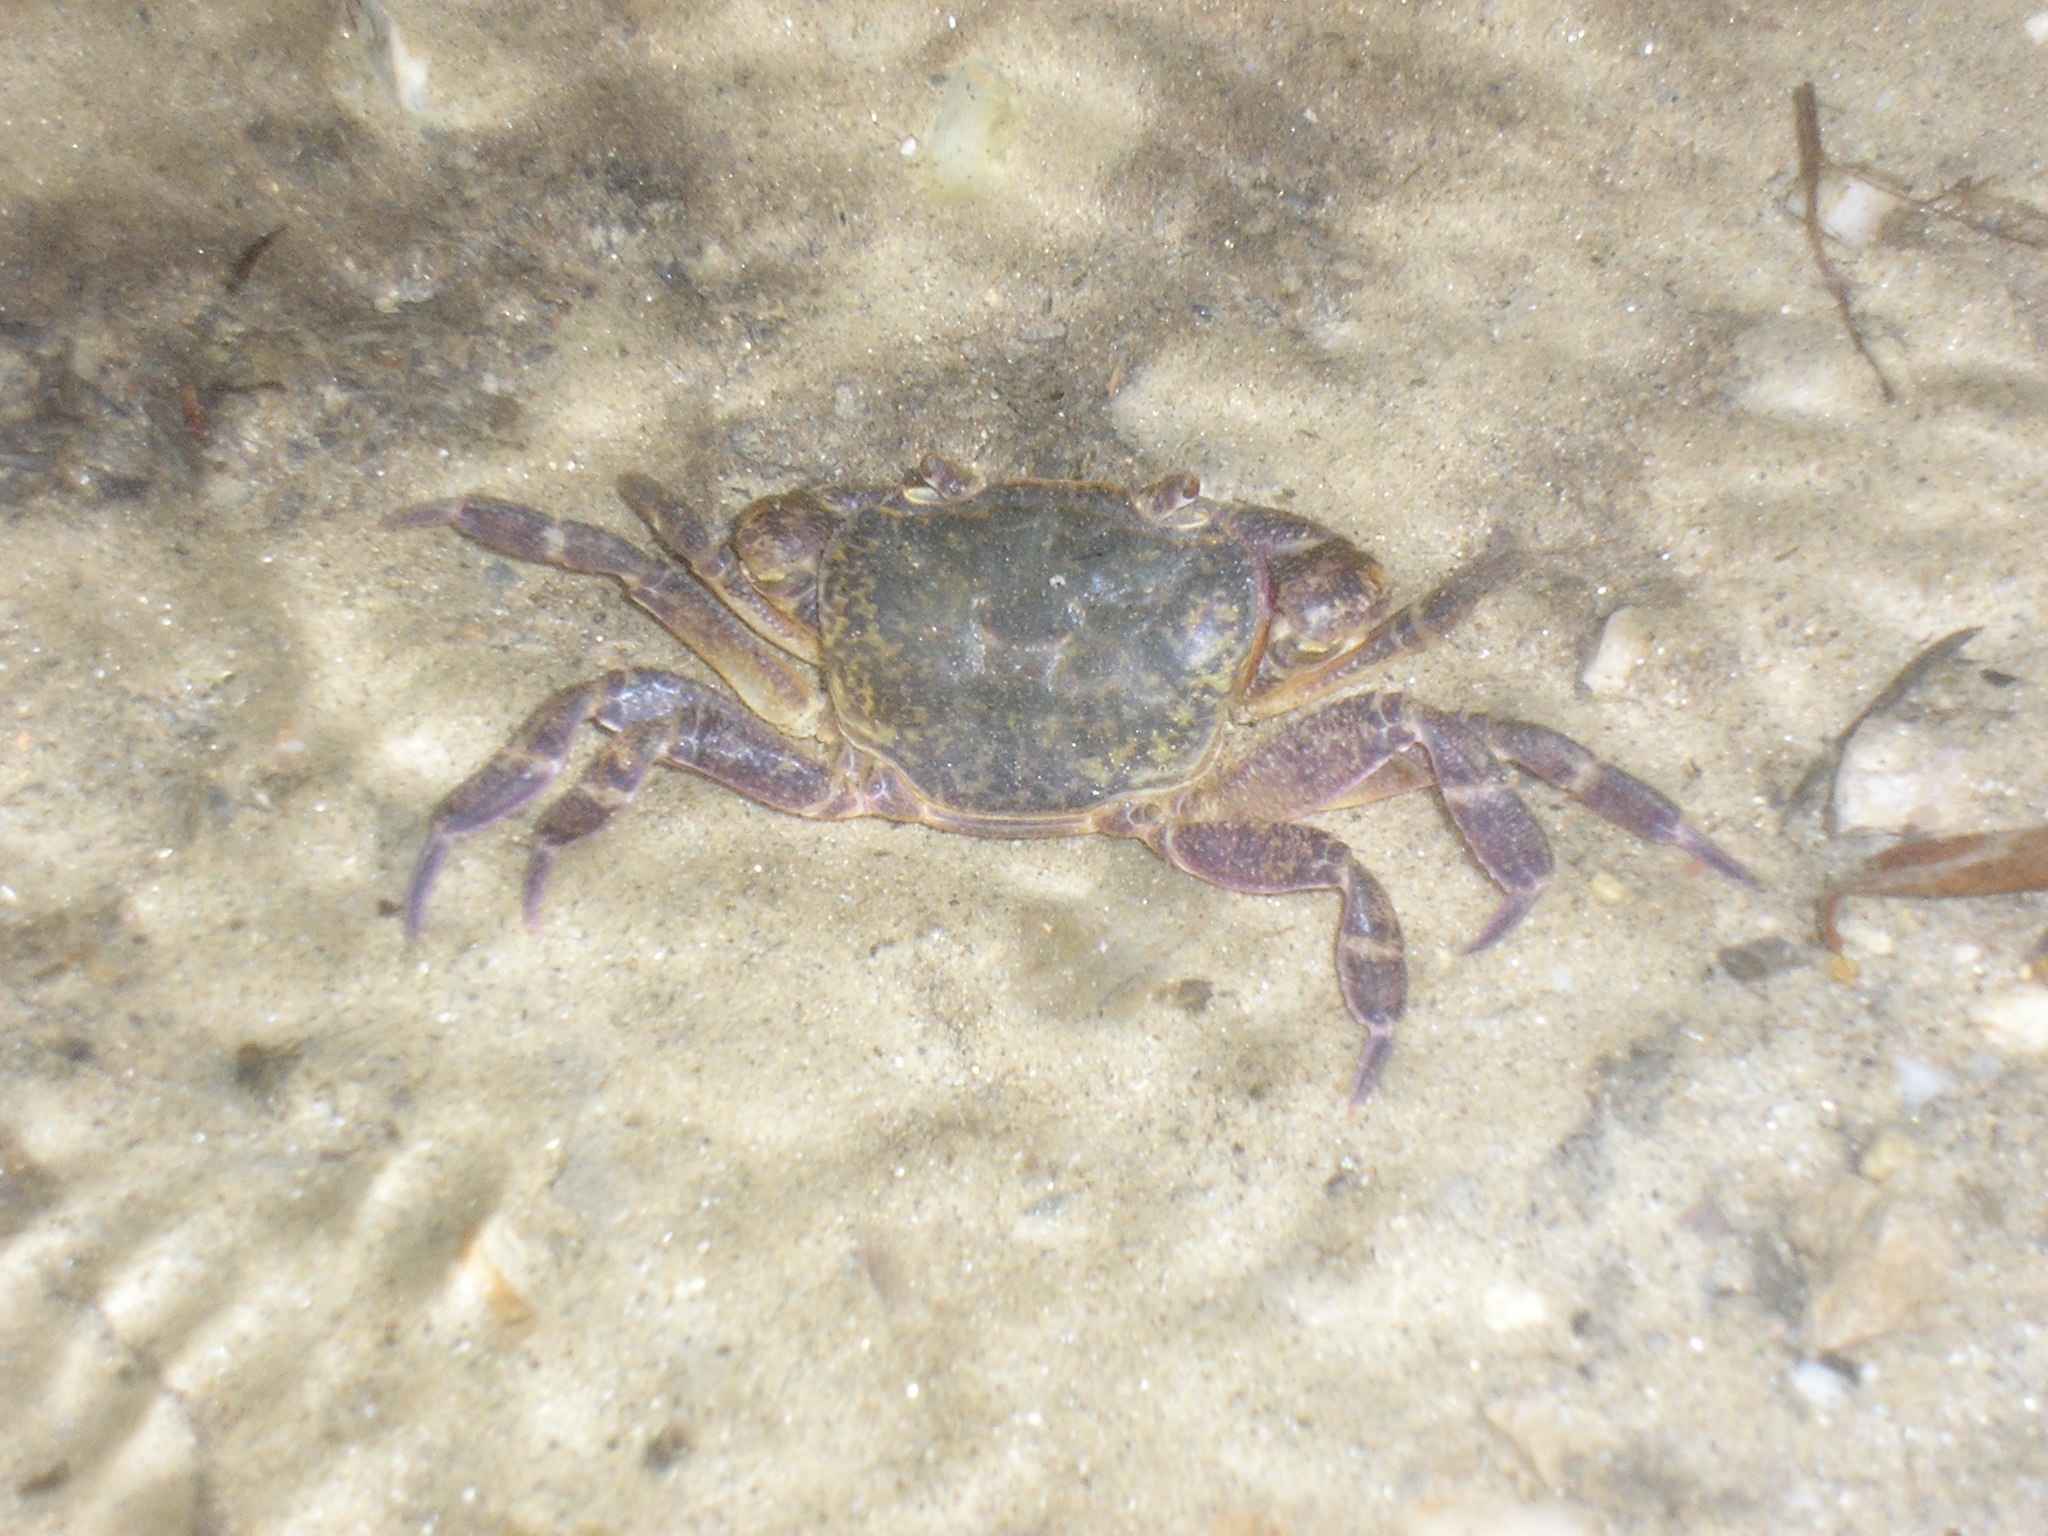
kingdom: Animalia
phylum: Arthropoda
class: Malacostraca
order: Decapoda
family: Potamidae
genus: Potamon
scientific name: Potamon ibericum
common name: Bieberstein's freshwater crab
